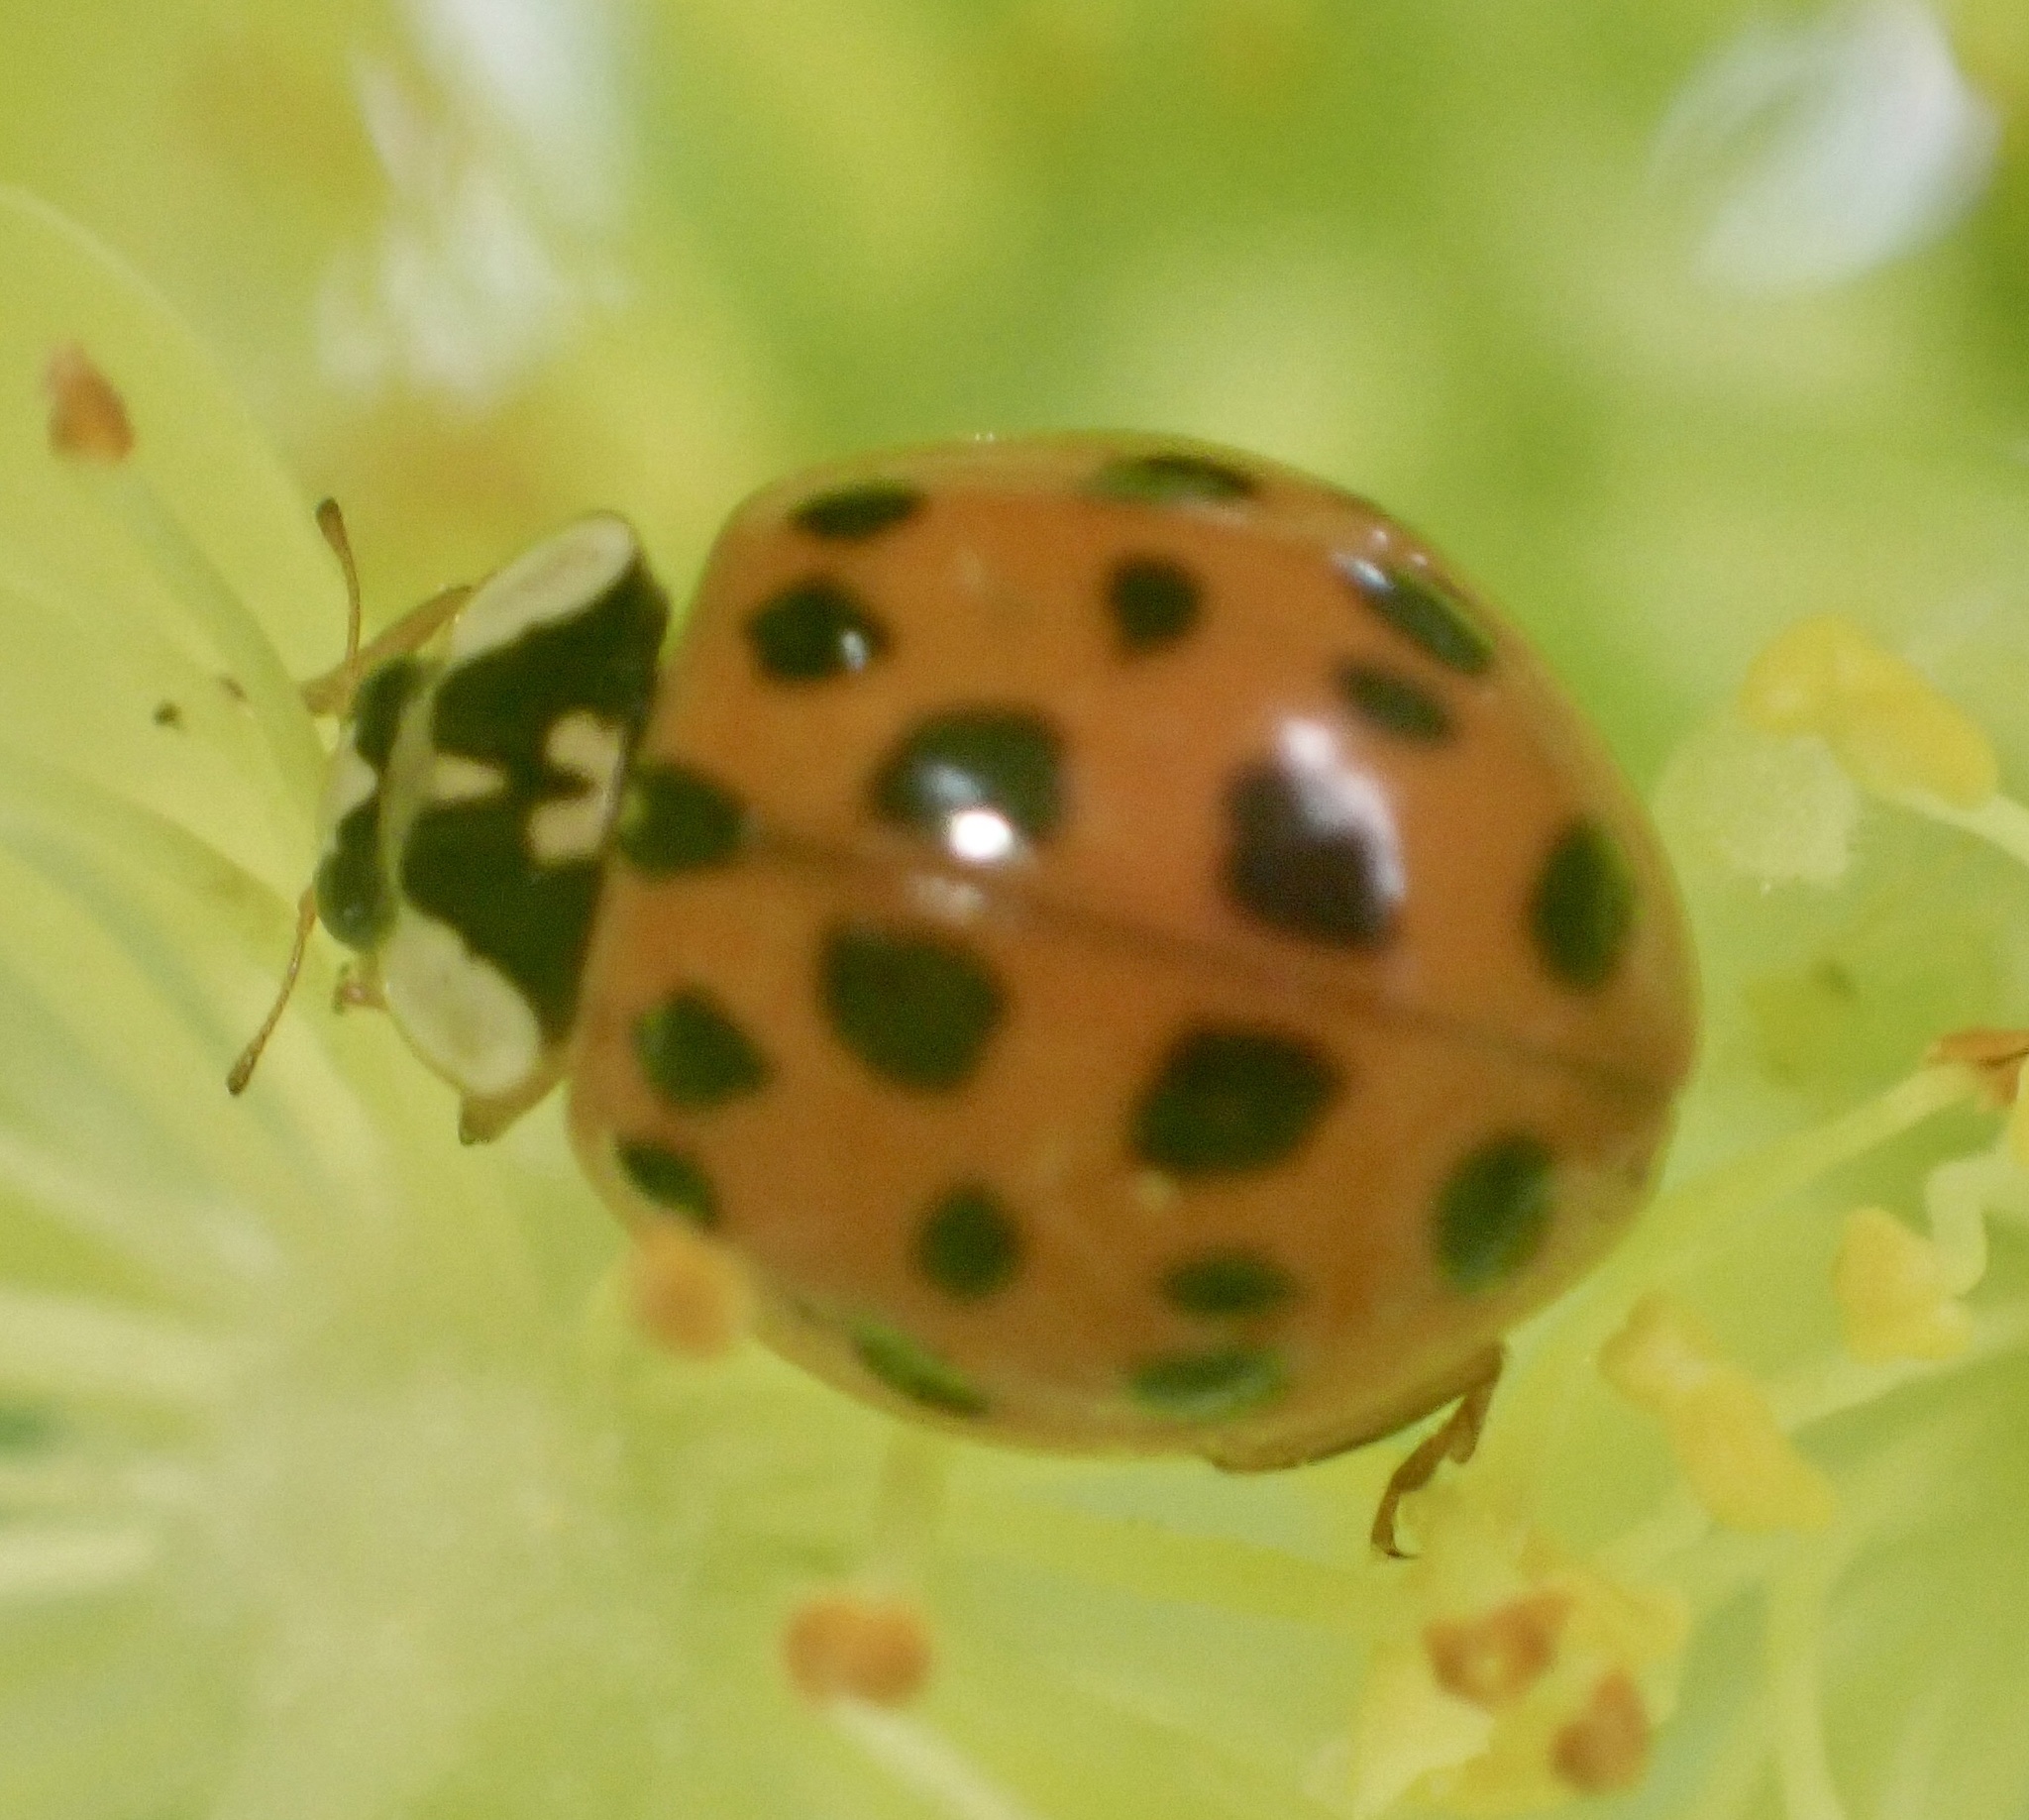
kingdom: Animalia
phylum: Arthropoda
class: Insecta
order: Coleoptera
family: Coccinellidae
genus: Harmonia
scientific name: Harmonia axyridis
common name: Harlequin ladybird
